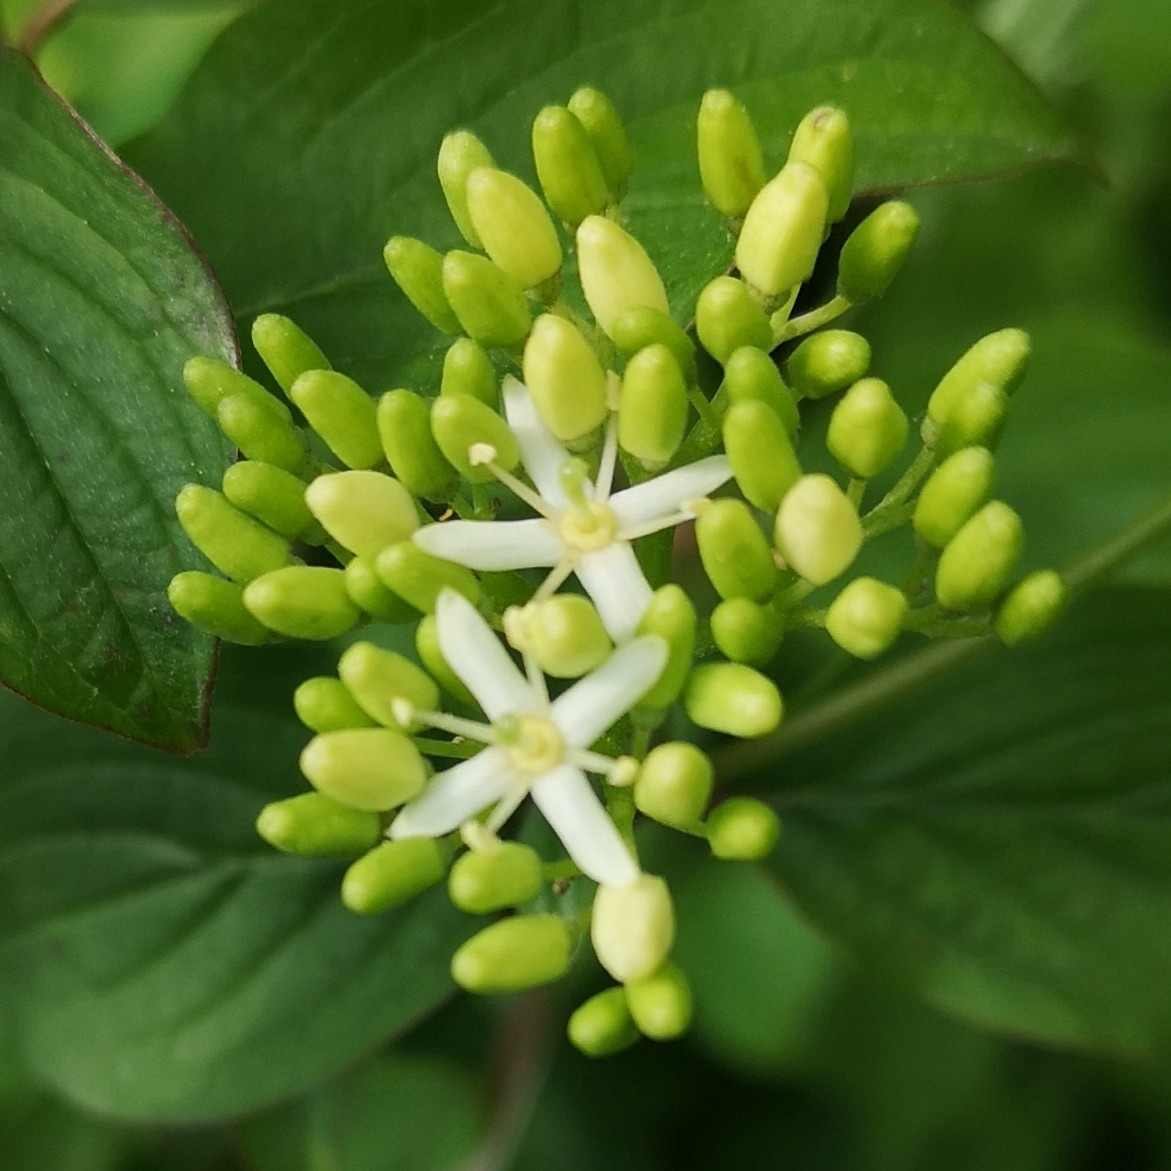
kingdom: Plantae
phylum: Tracheophyta
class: Magnoliopsida
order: Cornales
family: Cornaceae
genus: Cornus
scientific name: Cornus sanguinea
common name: Dogwood
